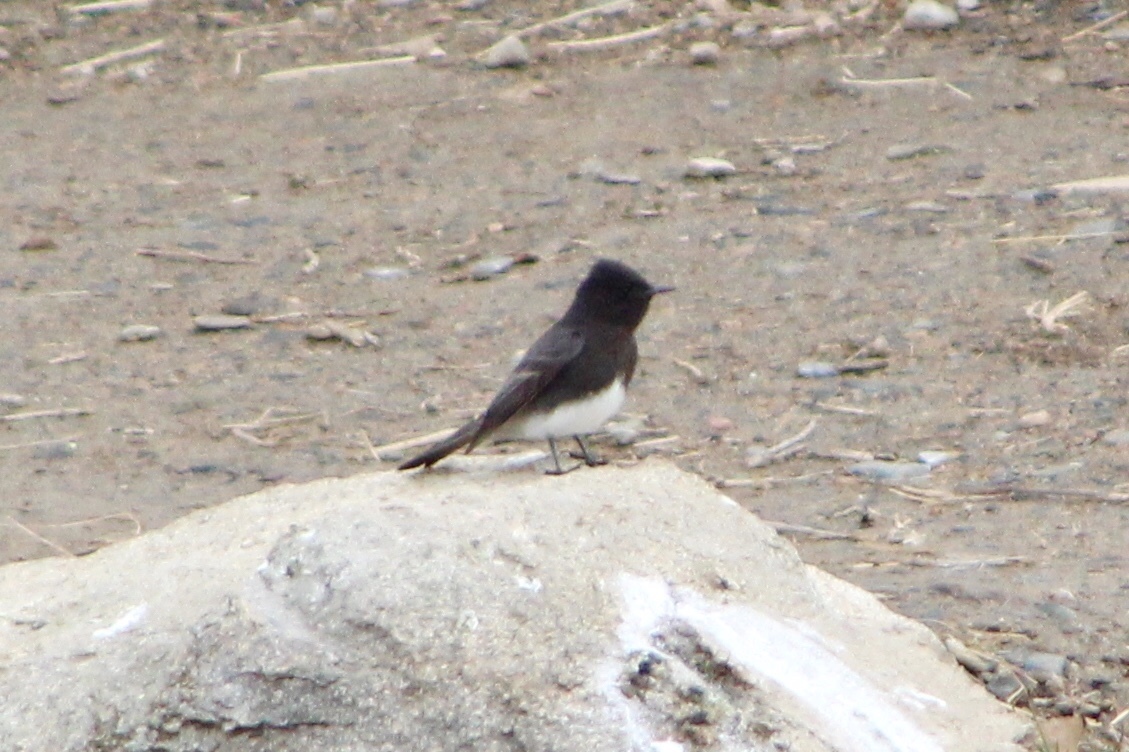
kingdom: Animalia
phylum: Chordata
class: Aves
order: Passeriformes
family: Tyrannidae
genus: Sayornis
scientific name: Sayornis nigricans
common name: Black phoebe
